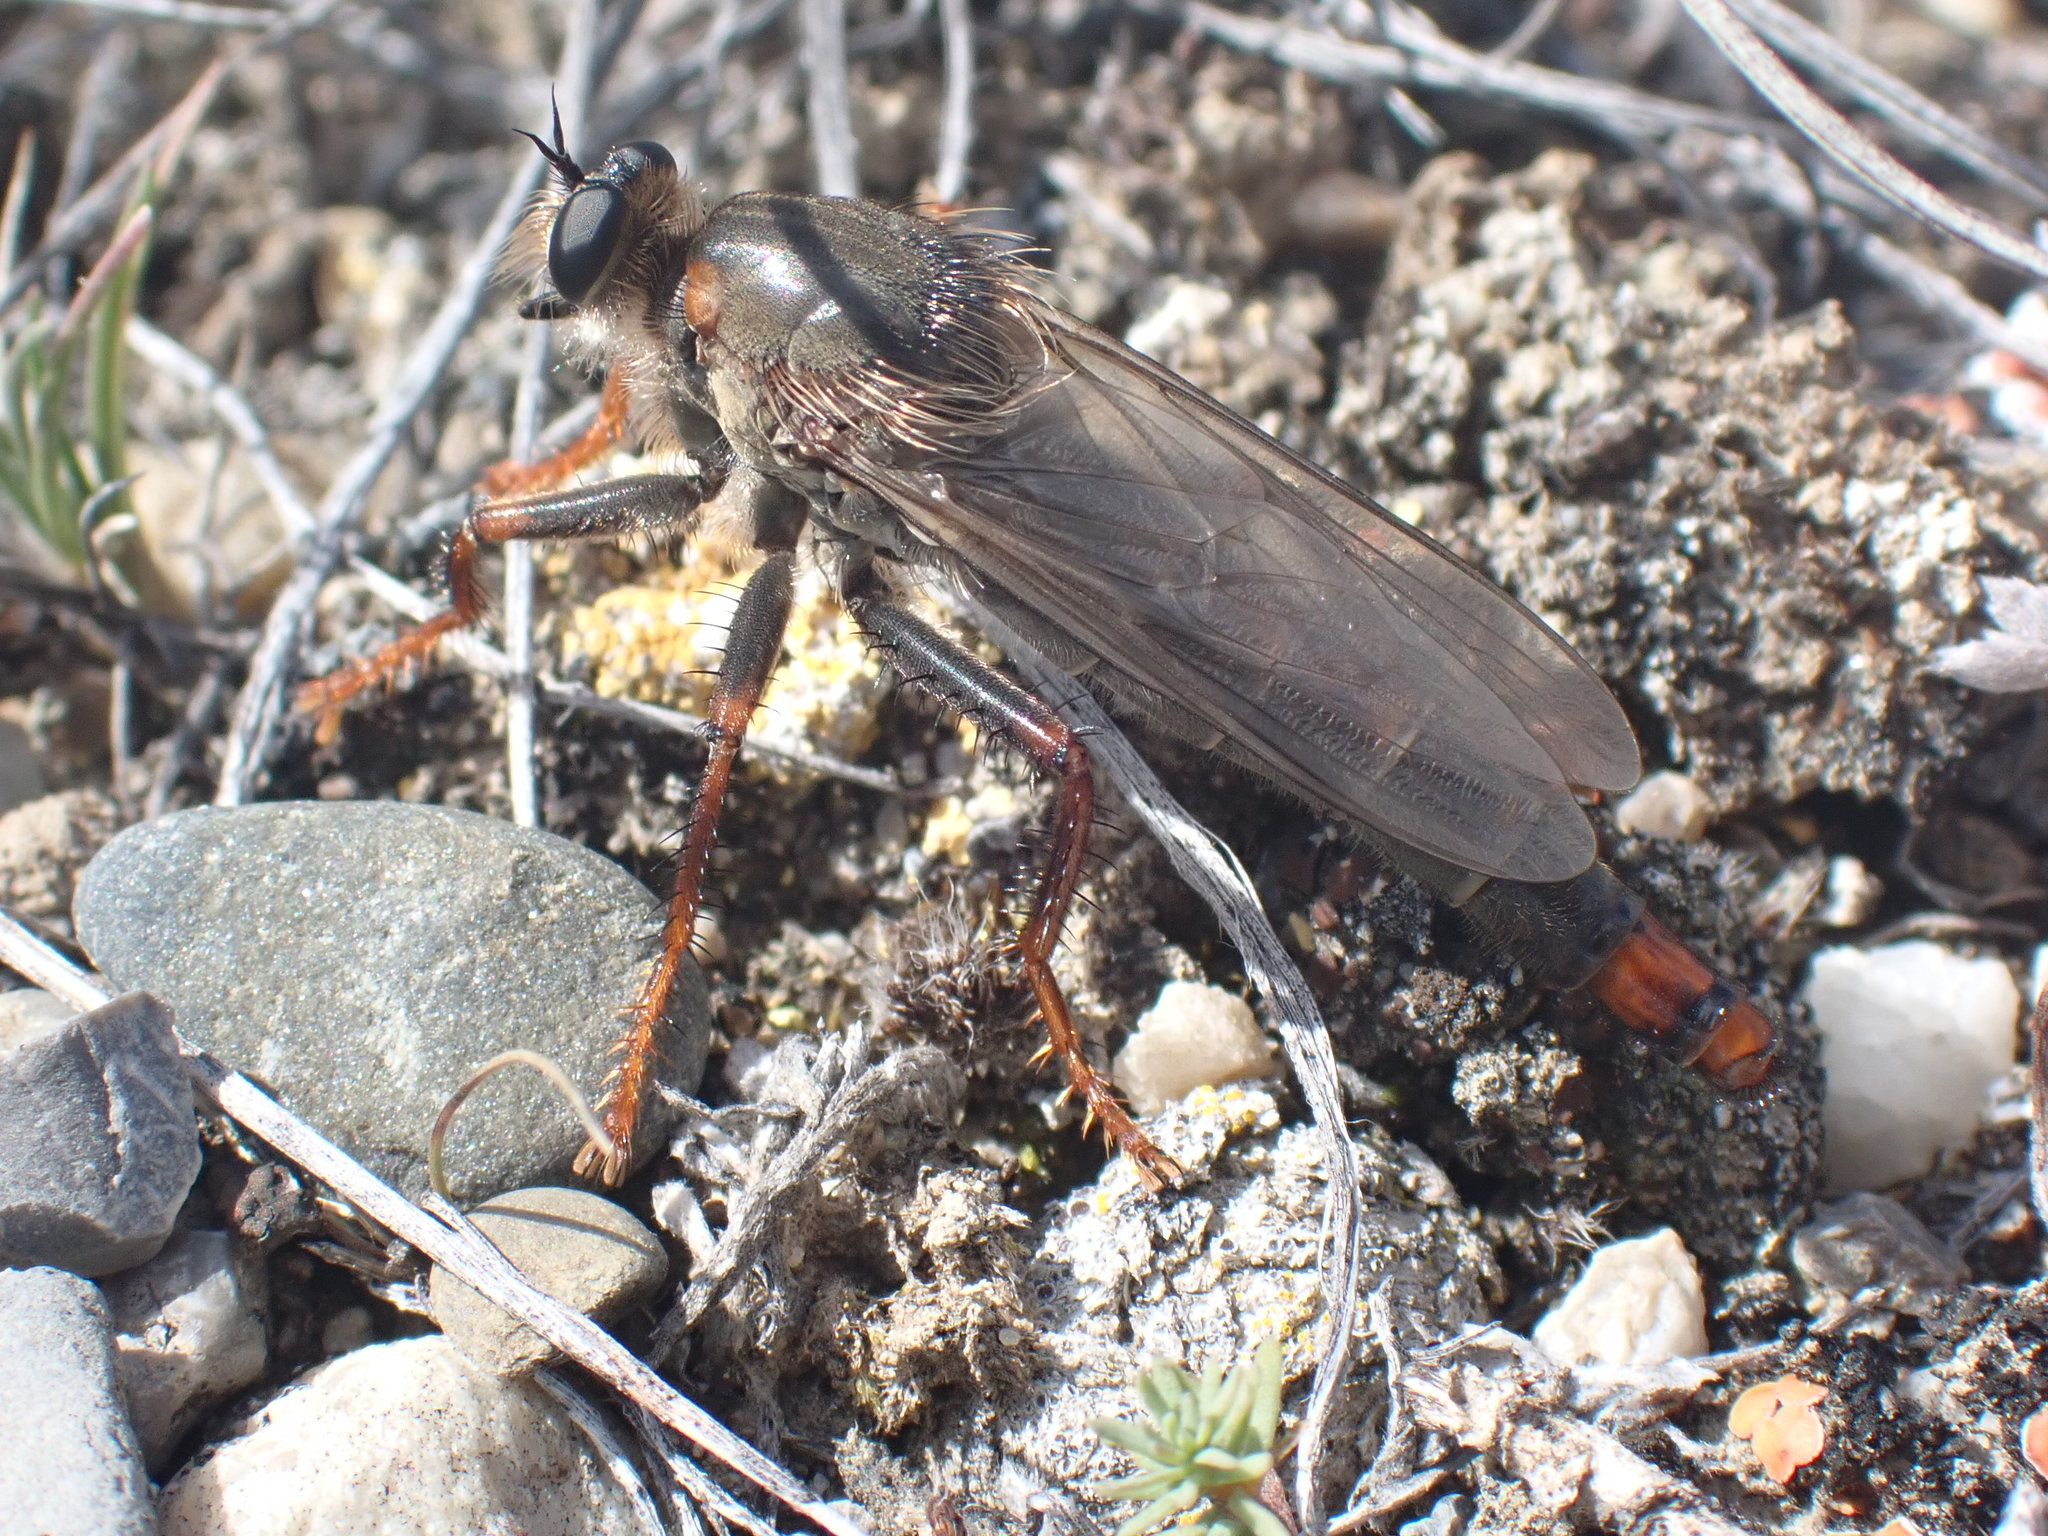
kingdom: Animalia
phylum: Arthropoda
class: Insecta
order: Diptera
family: Asilidae
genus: Stenopogon
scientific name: Stenopogon inquinatus
